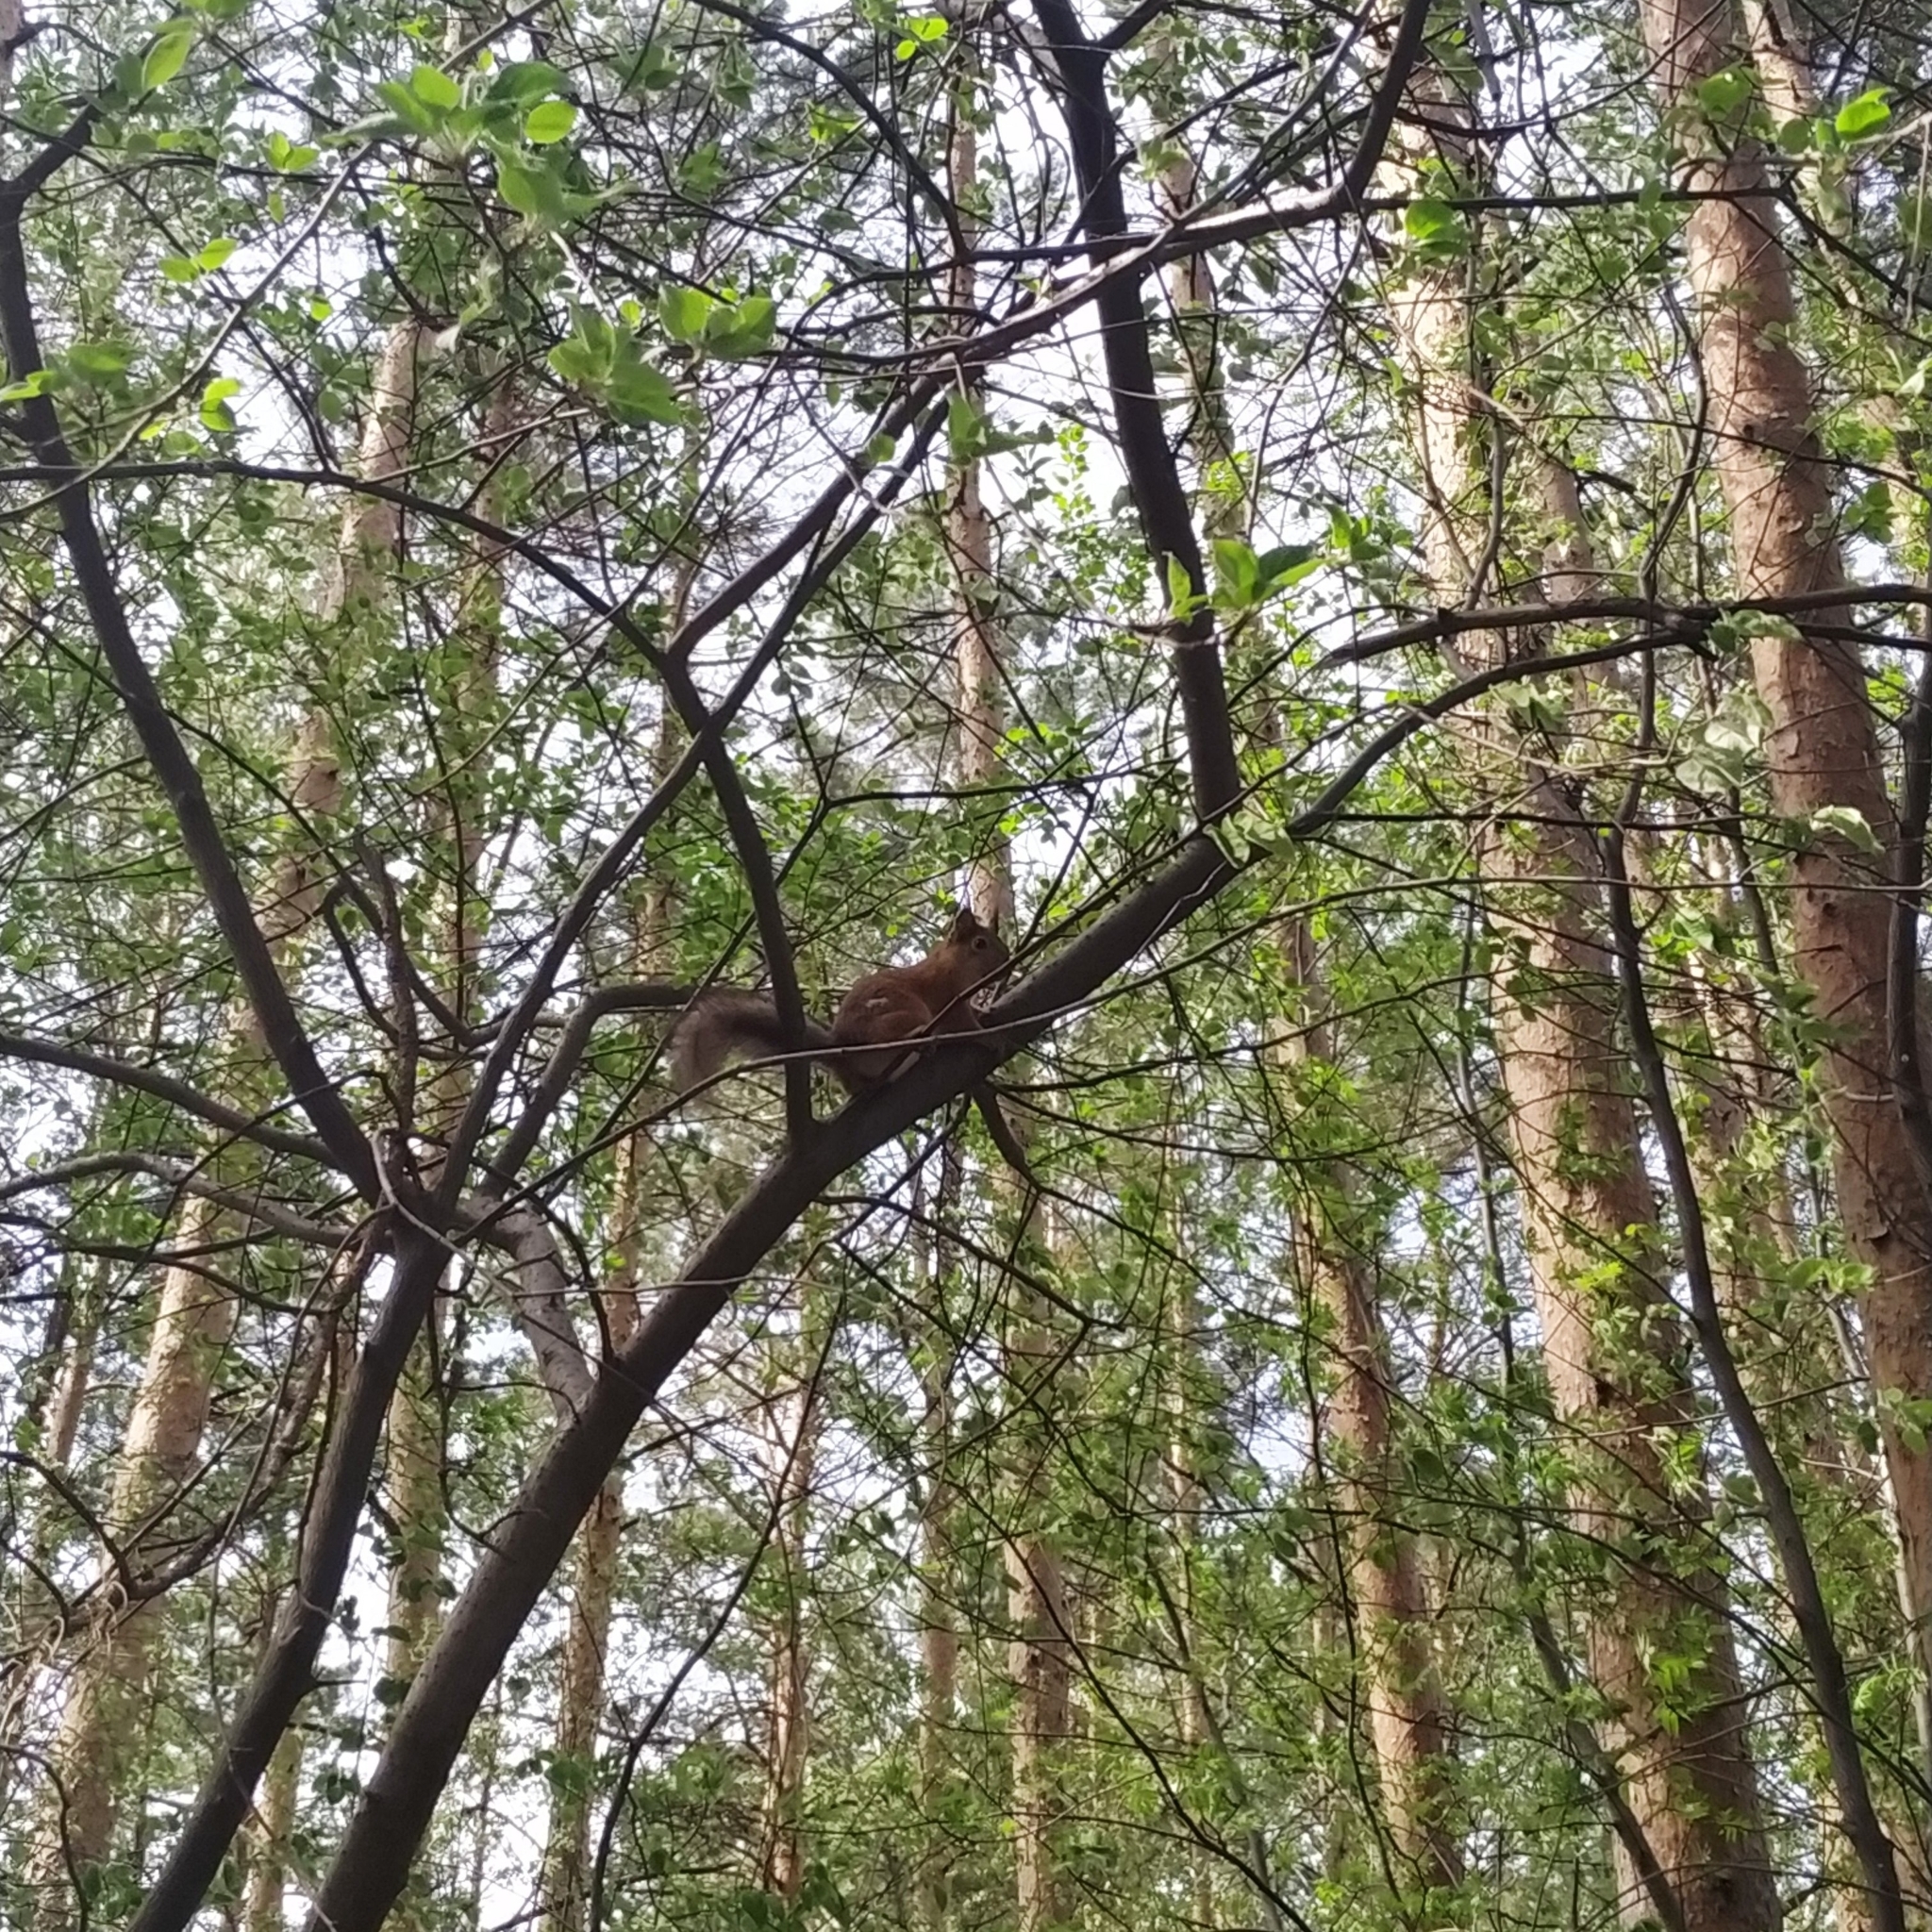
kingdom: Animalia
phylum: Chordata
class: Mammalia
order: Rodentia
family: Sciuridae
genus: Sciurus
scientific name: Sciurus vulgaris
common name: Eurasian red squirrel
